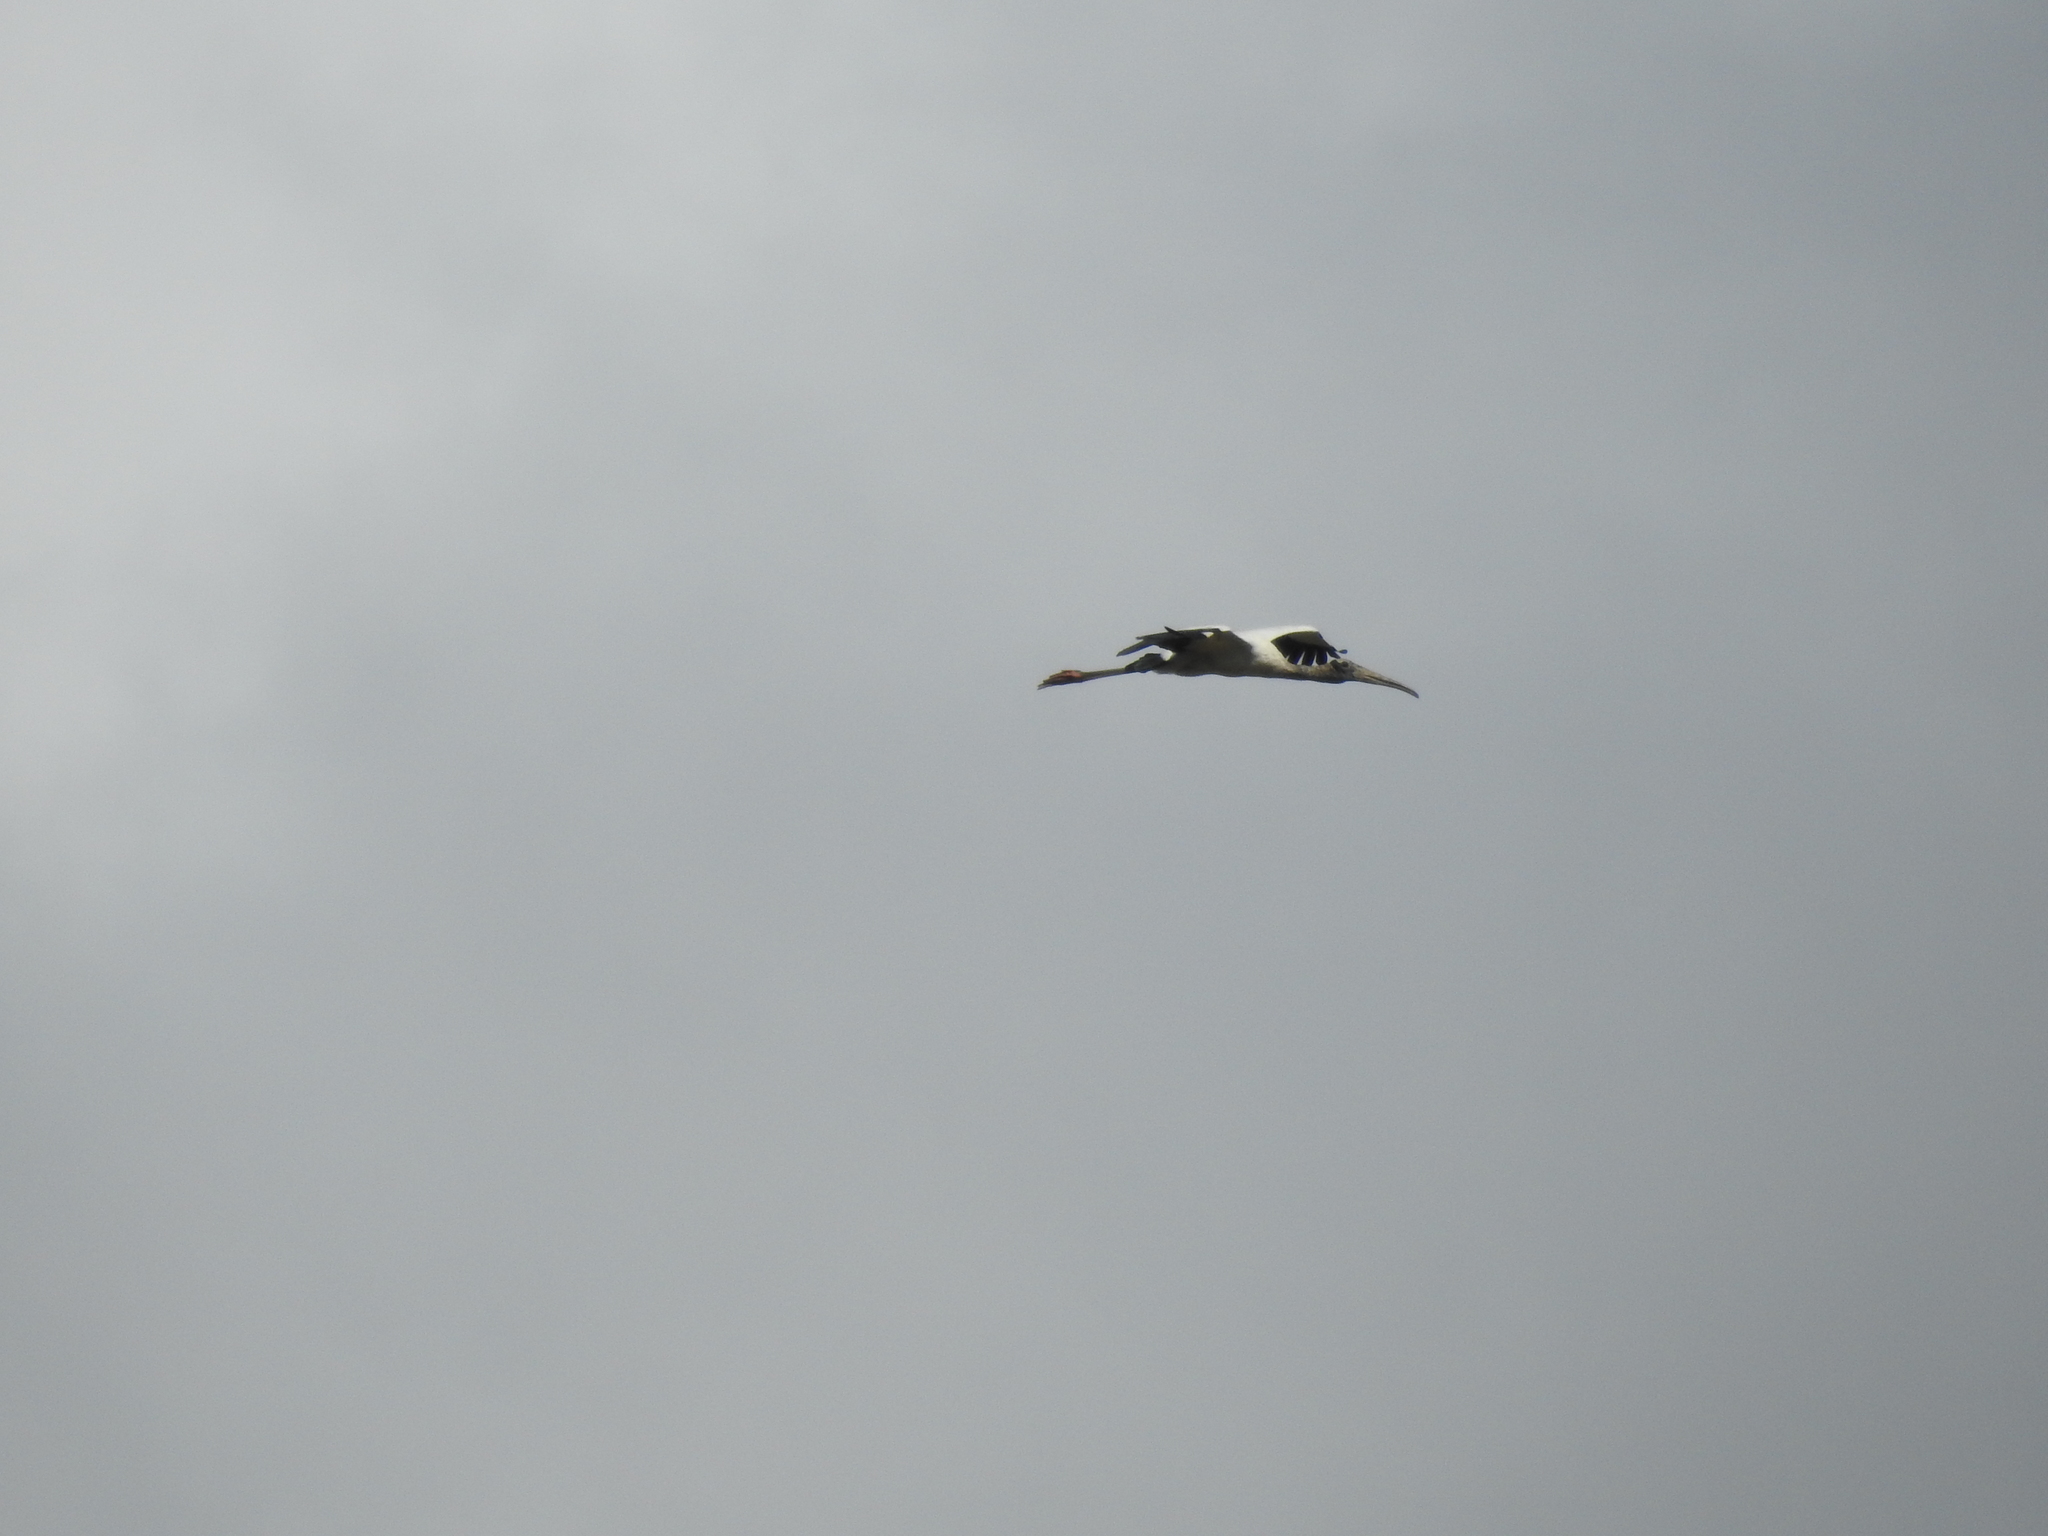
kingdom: Animalia
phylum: Chordata
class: Aves
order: Ciconiiformes
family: Ciconiidae
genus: Mycteria
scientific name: Mycteria americana
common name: Wood stork
